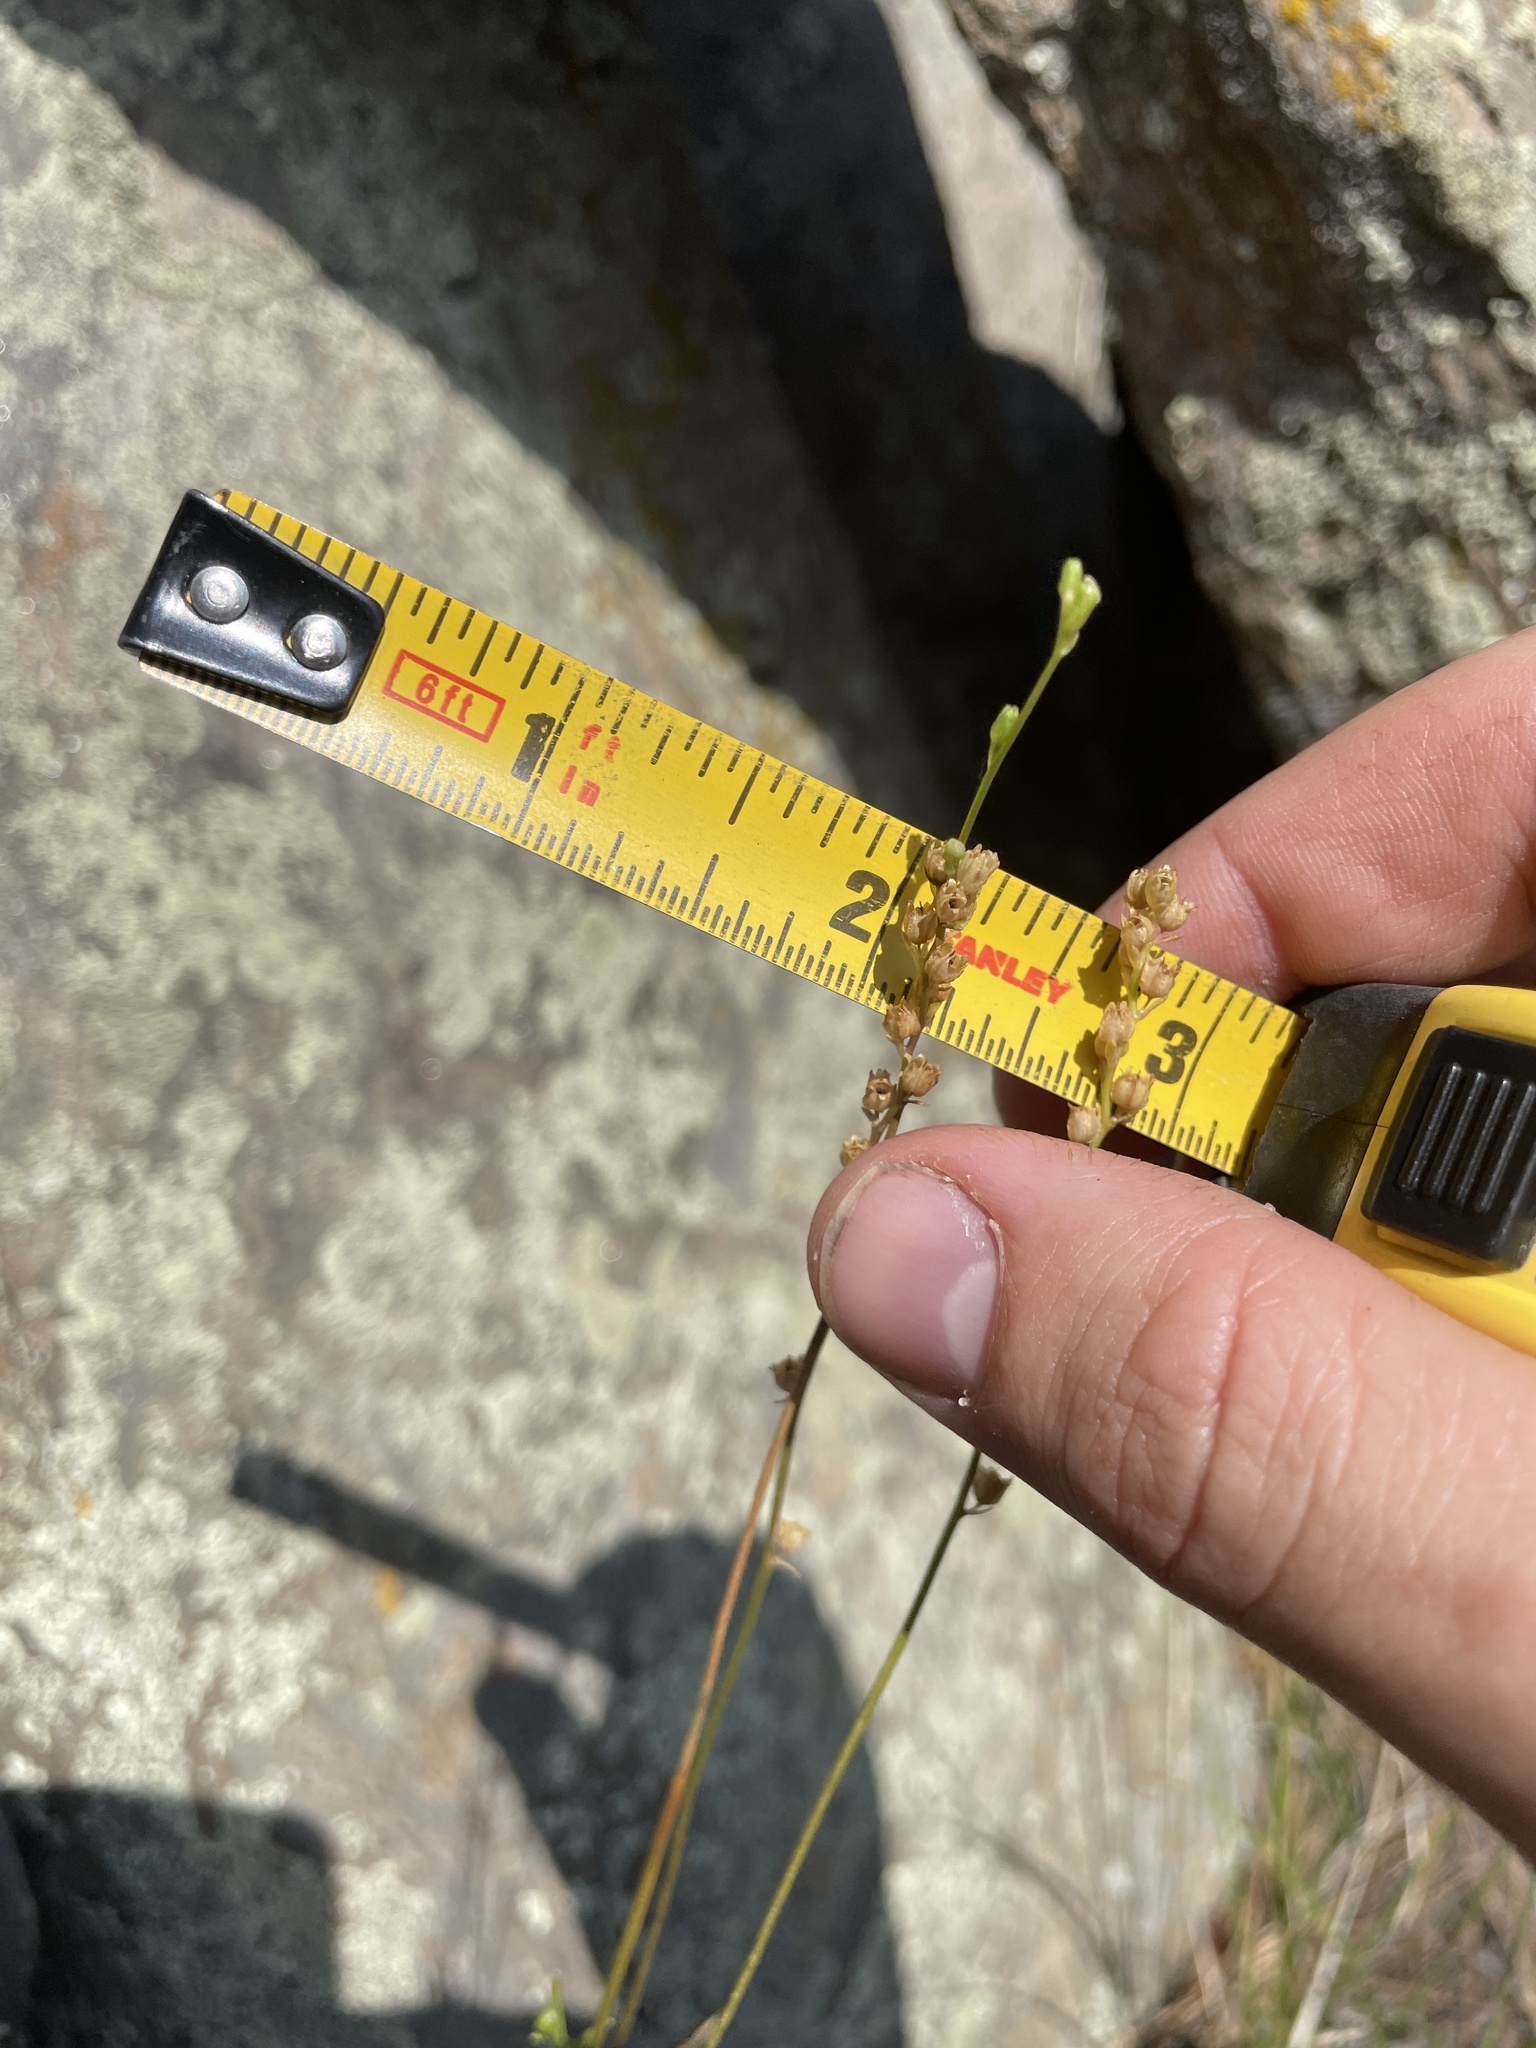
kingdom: Plantae
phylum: Tracheophyta
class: Magnoliopsida
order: Lamiales
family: Plantaginaceae
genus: Nuttallanthus
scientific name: Nuttallanthus texanus
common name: Texas toadflax
